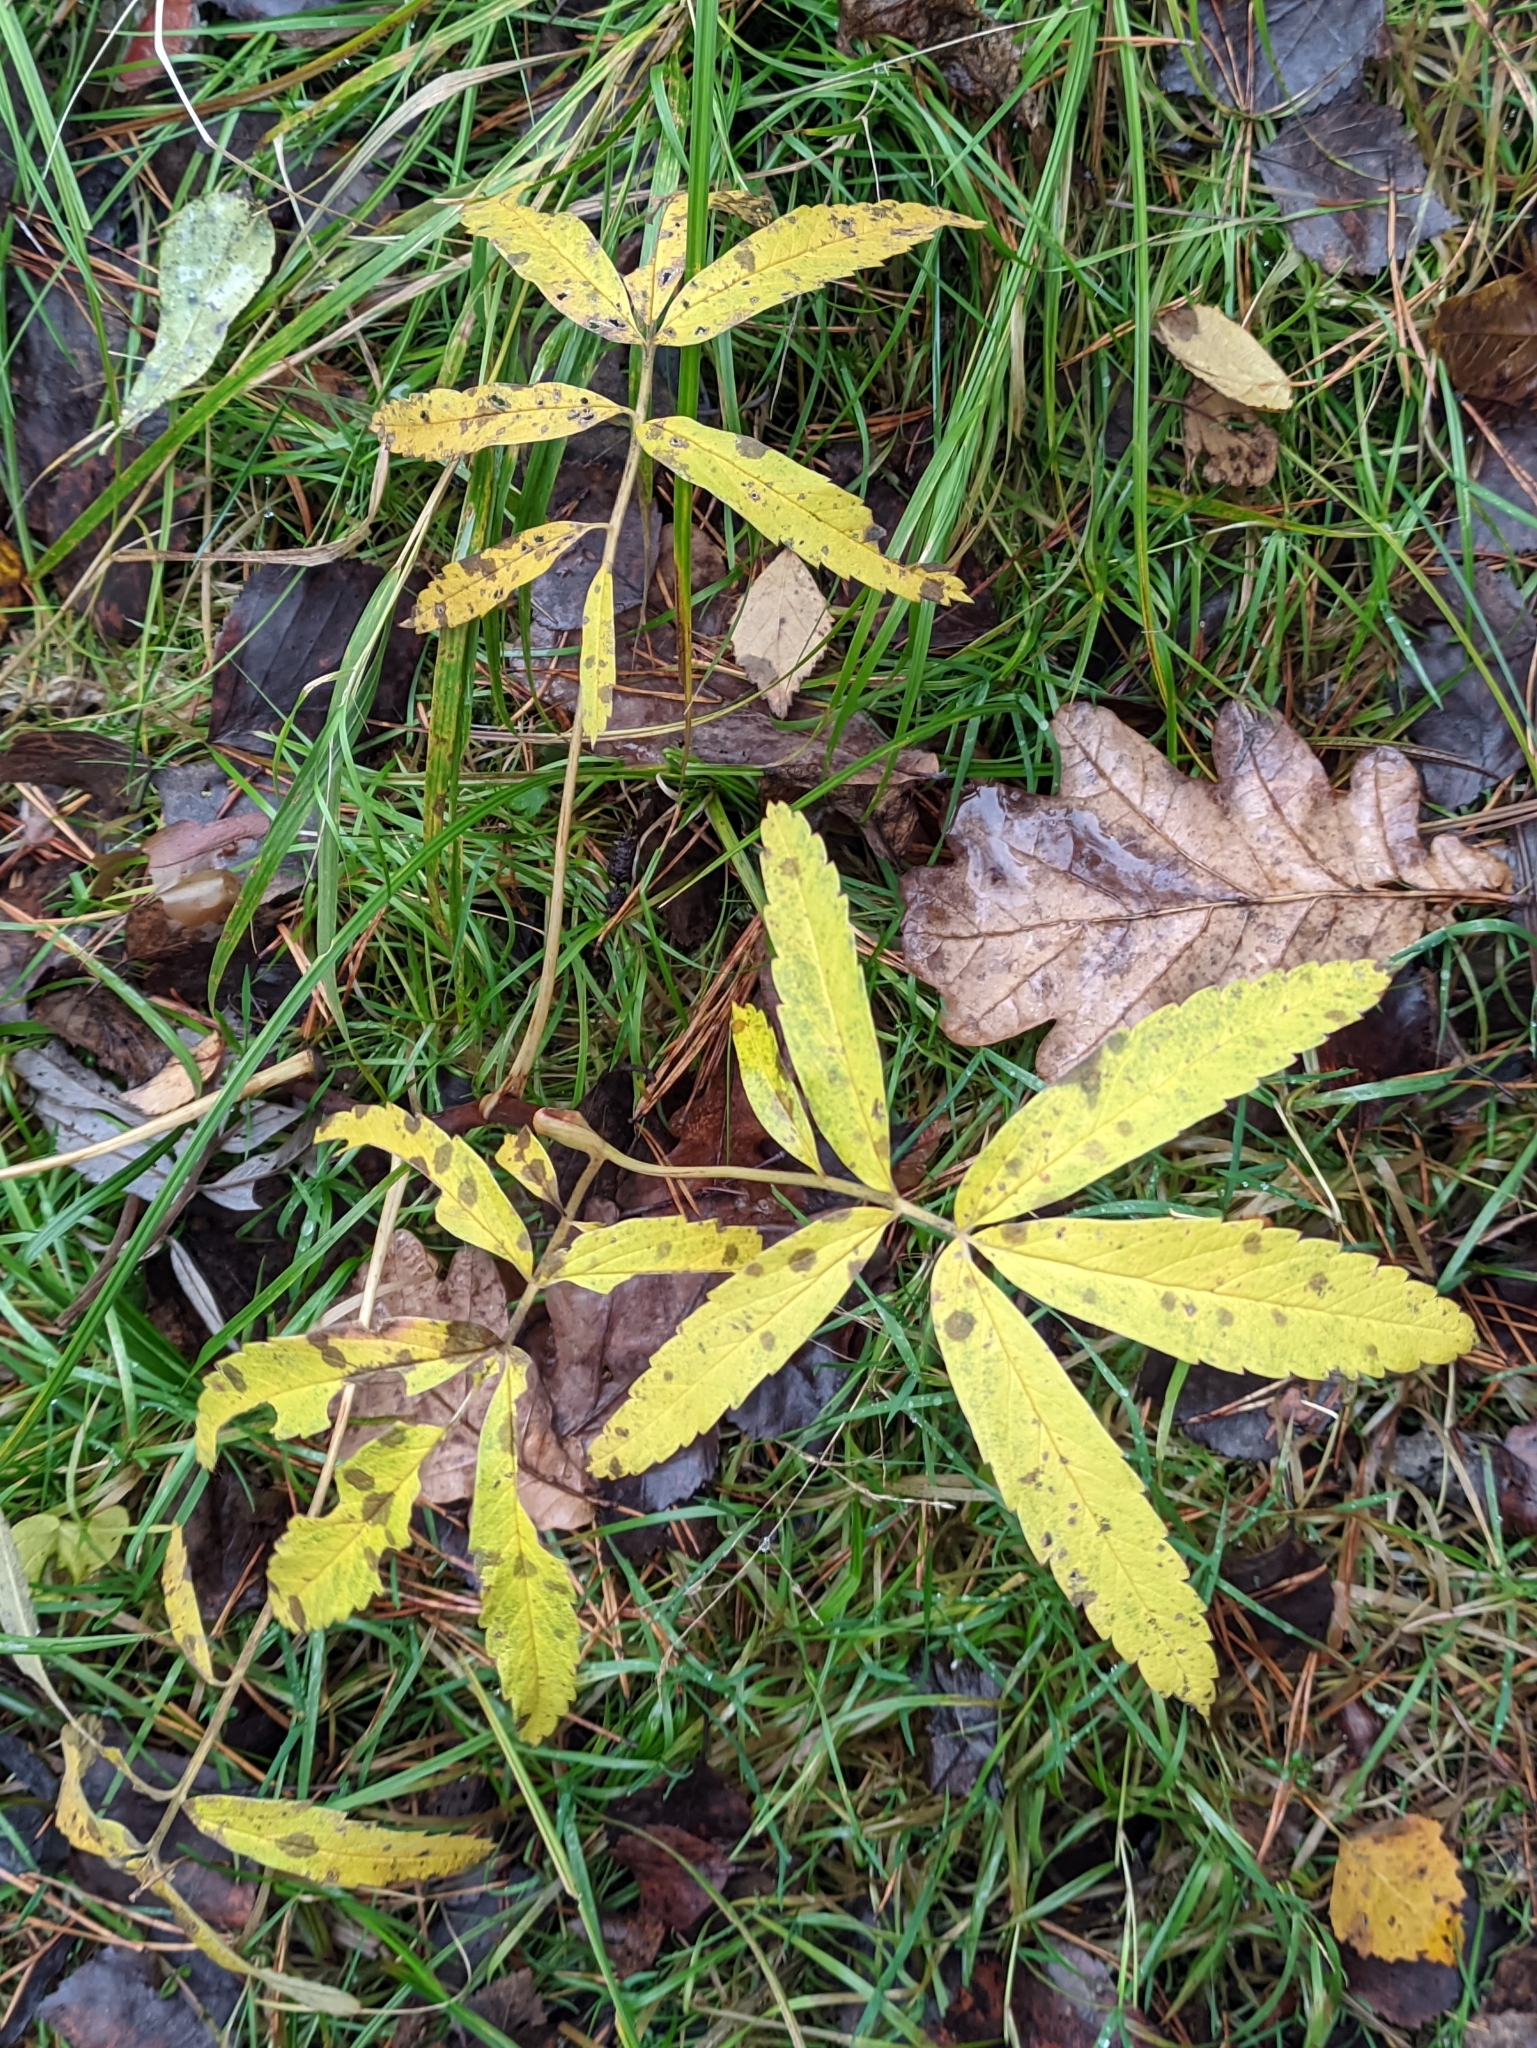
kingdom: Plantae
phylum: Tracheophyta
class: Magnoliopsida
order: Rosales
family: Rosaceae
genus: Comarum
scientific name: Comarum palustre
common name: Marsh cinquefoil
